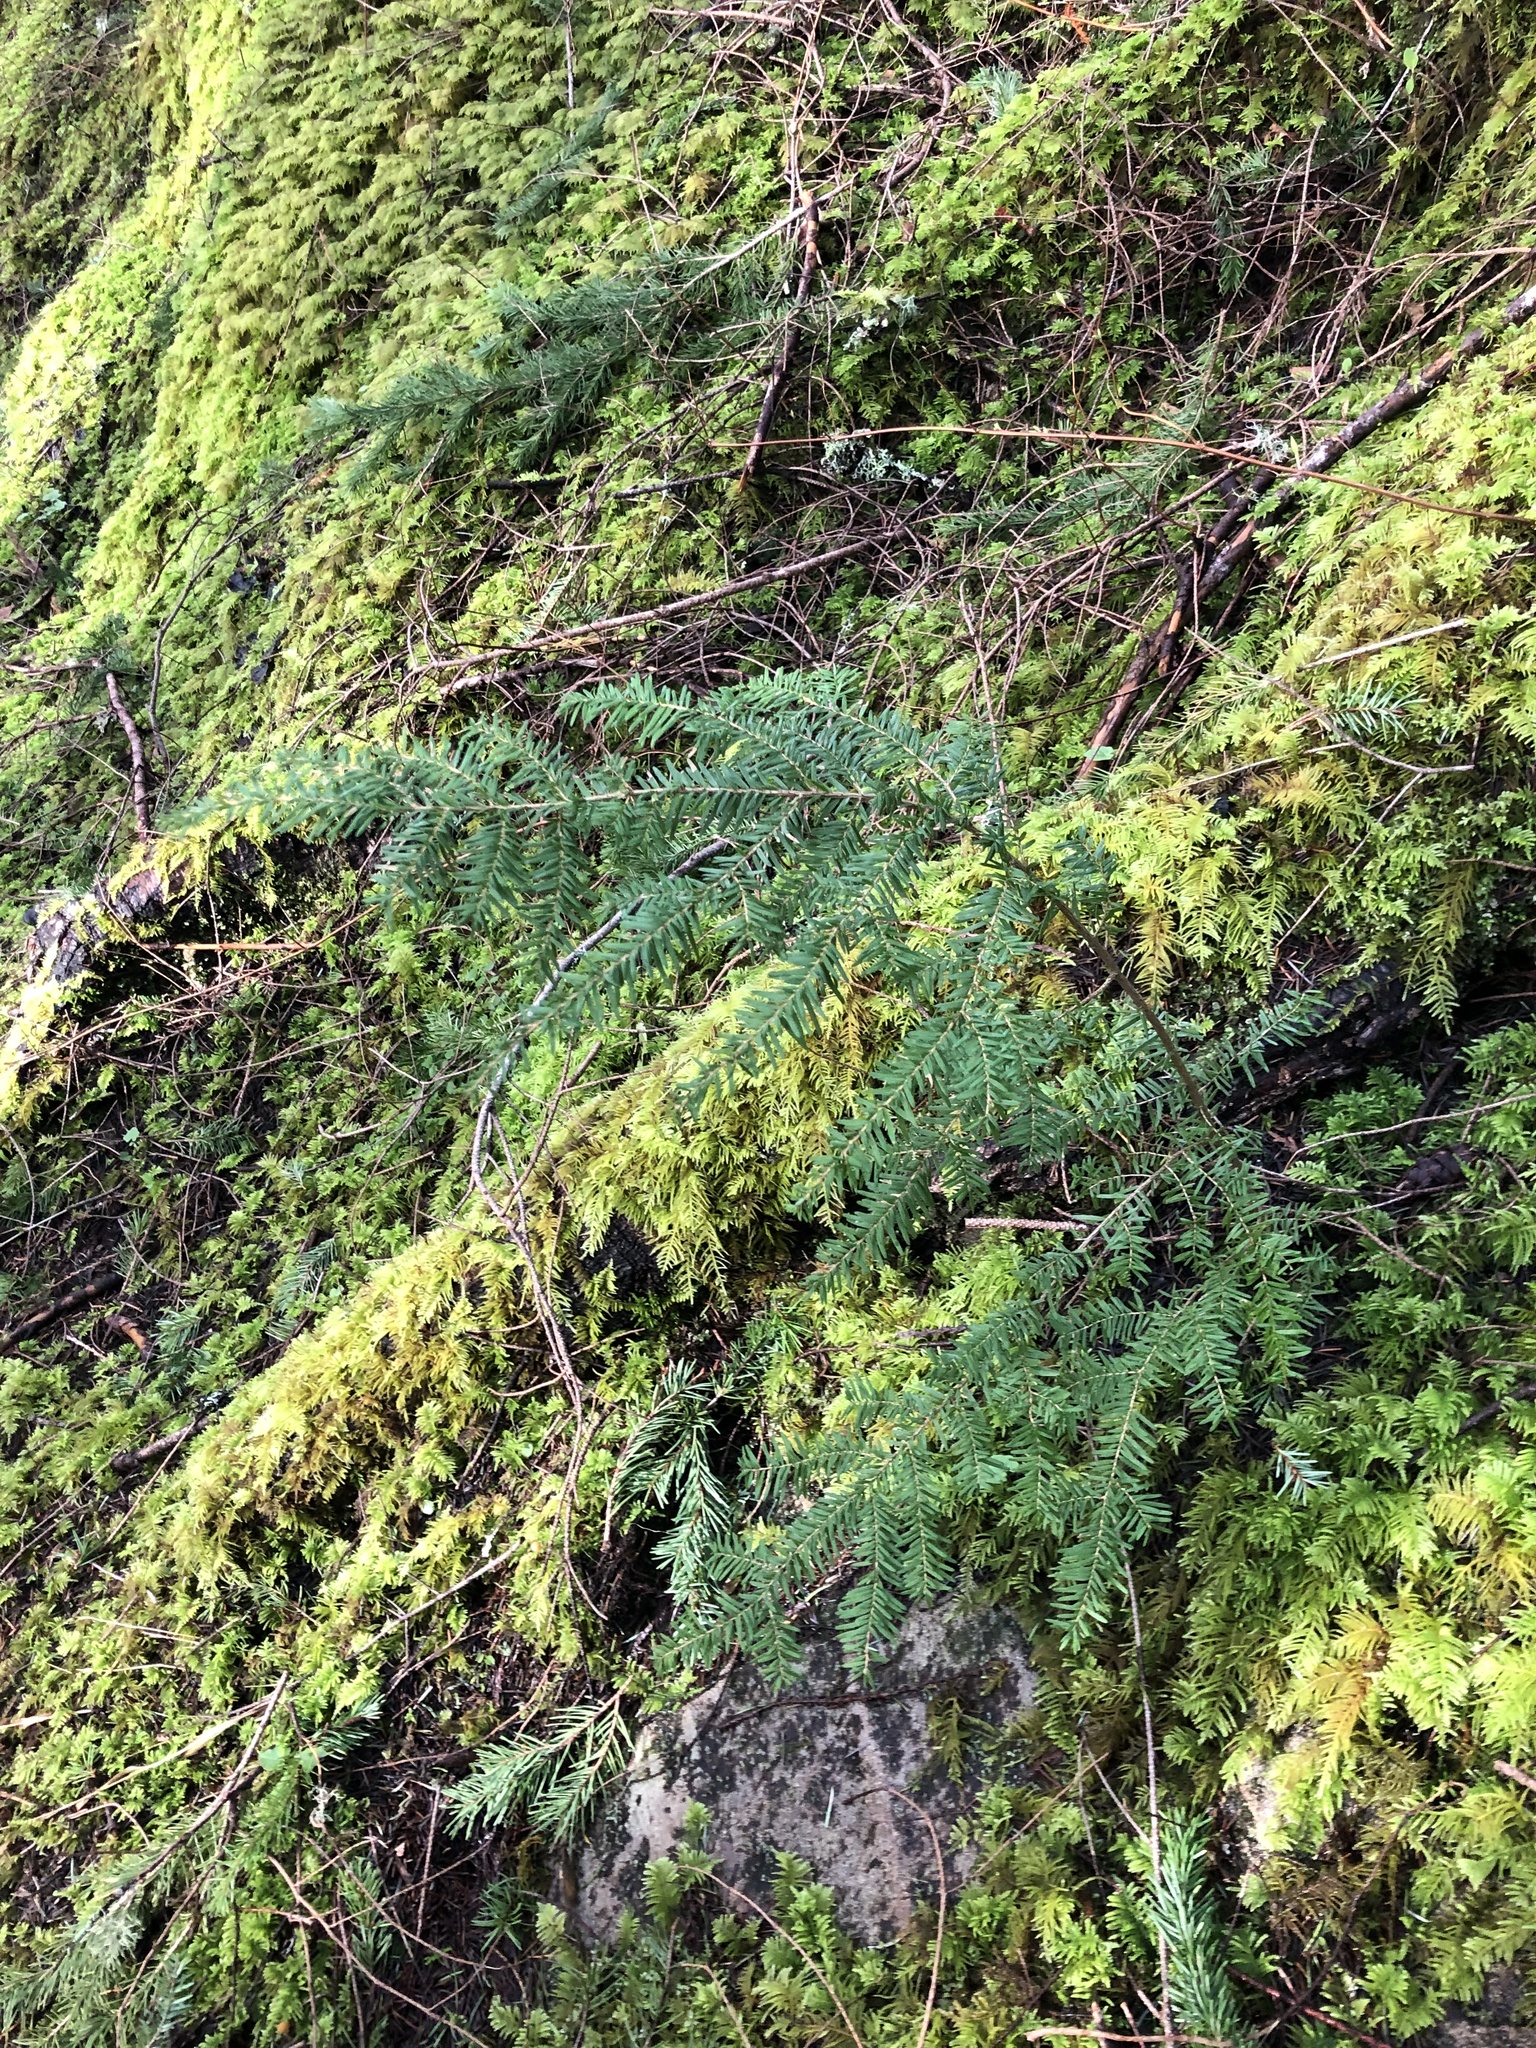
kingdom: Plantae
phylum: Tracheophyta
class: Pinopsida
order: Pinales
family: Pinaceae
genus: Tsuga
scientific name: Tsuga heterophylla
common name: Western hemlock
